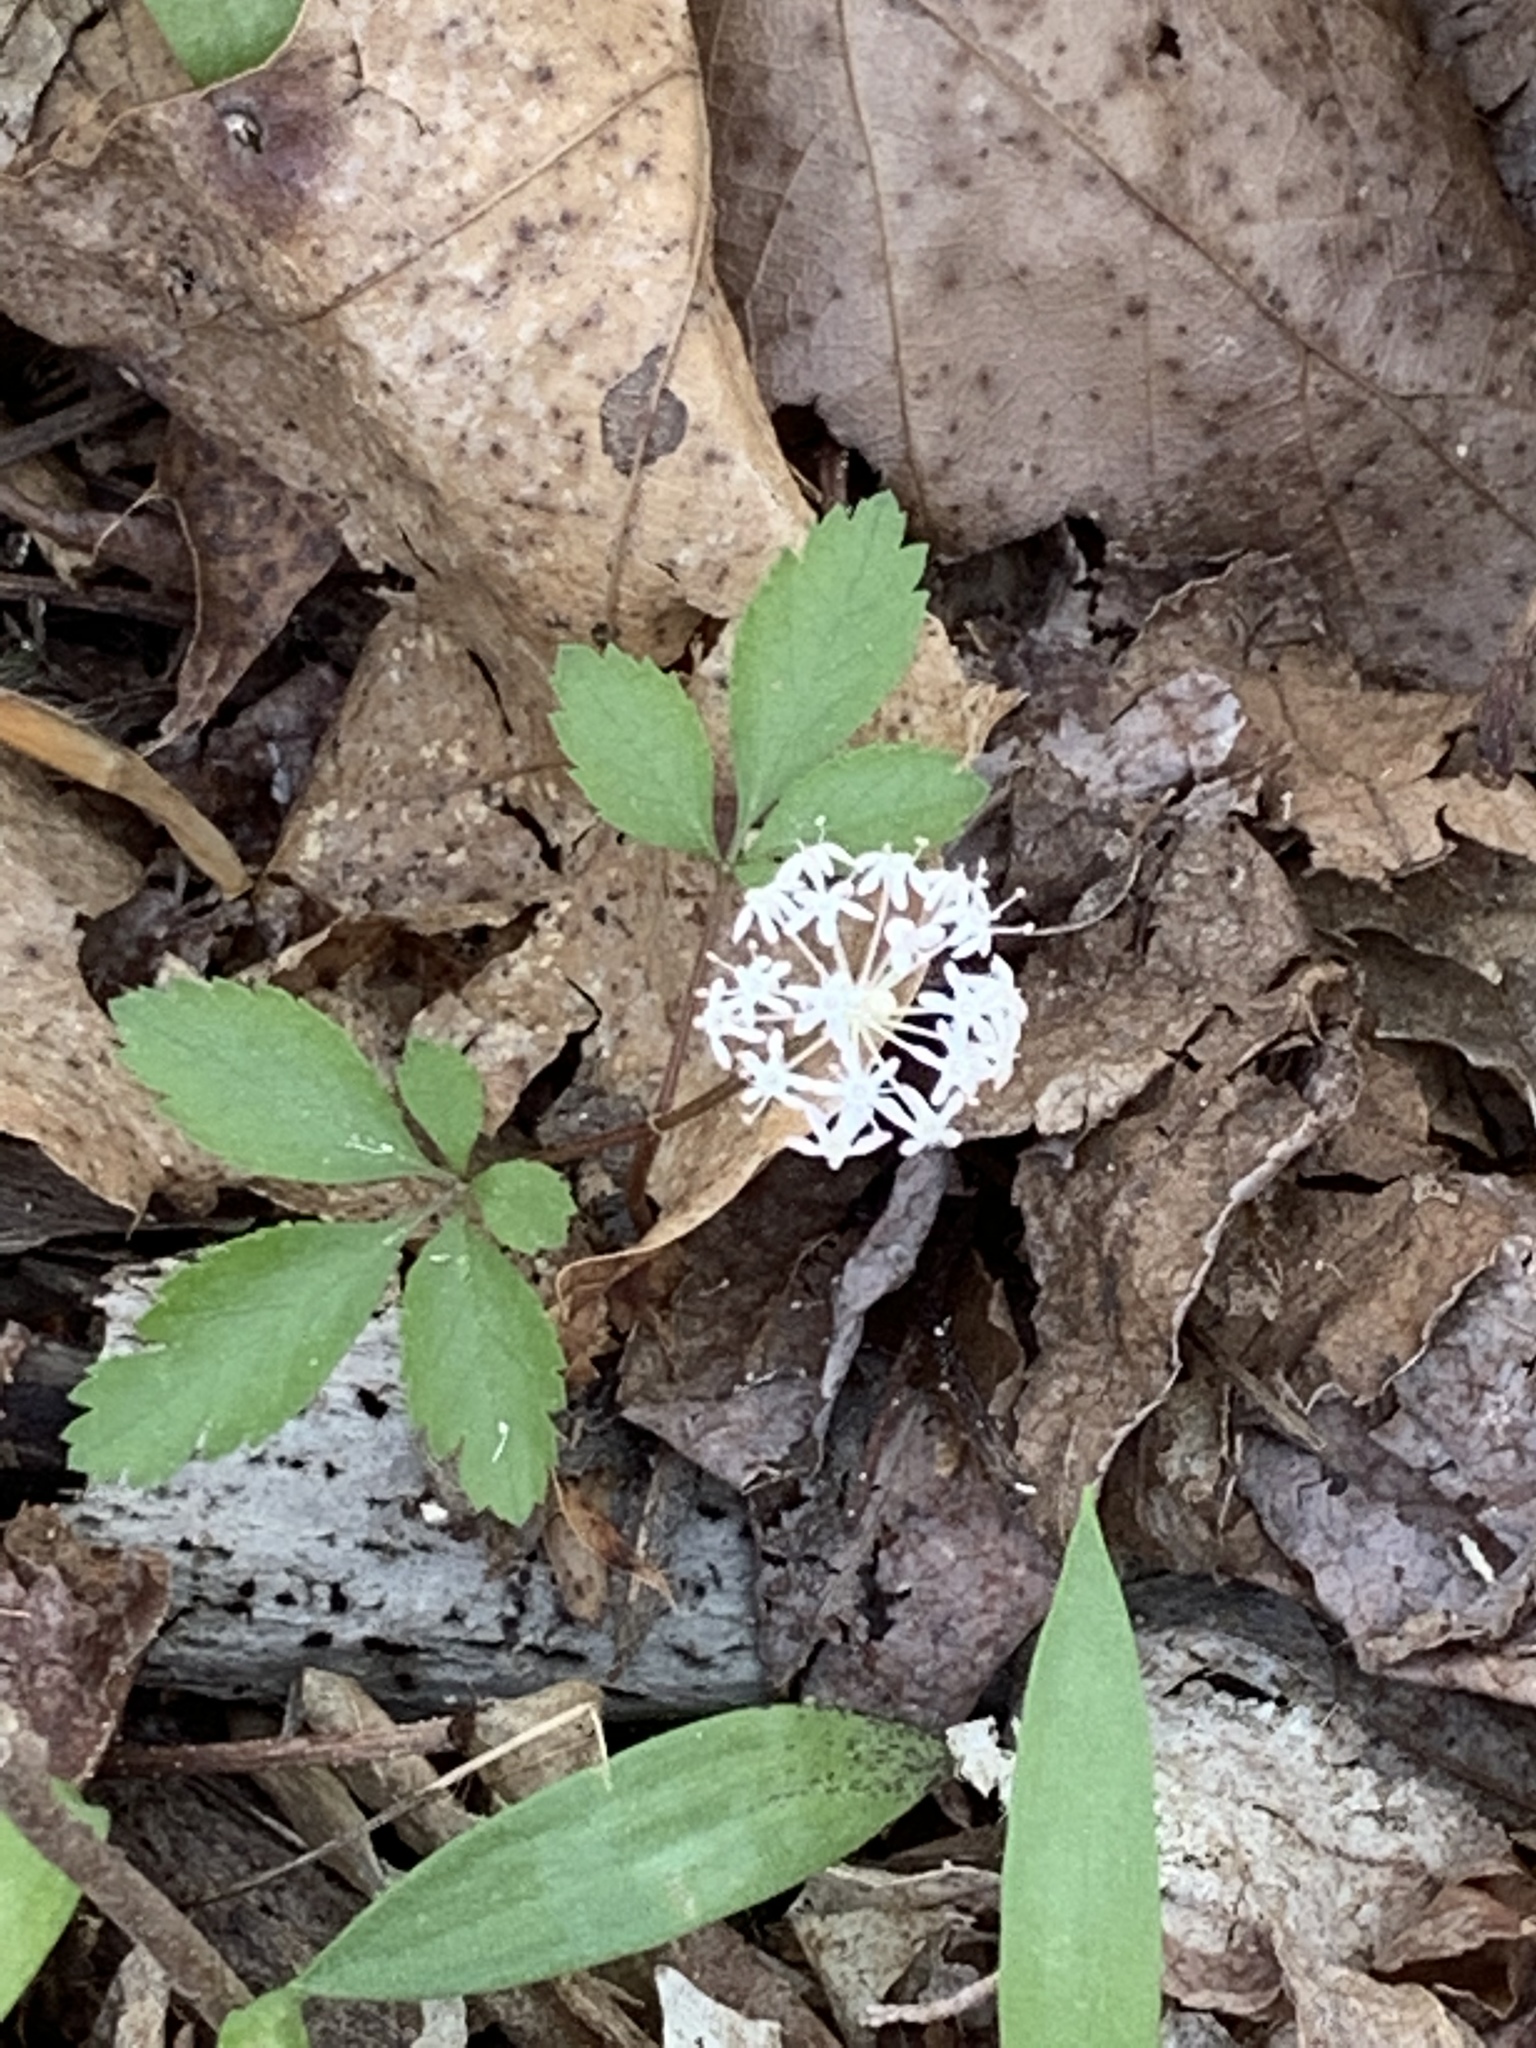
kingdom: Plantae
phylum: Tracheophyta
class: Magnoliopsida
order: Apiales
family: Araliaceae
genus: Panax
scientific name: Panax trifolius
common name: Dwarf ginseng
